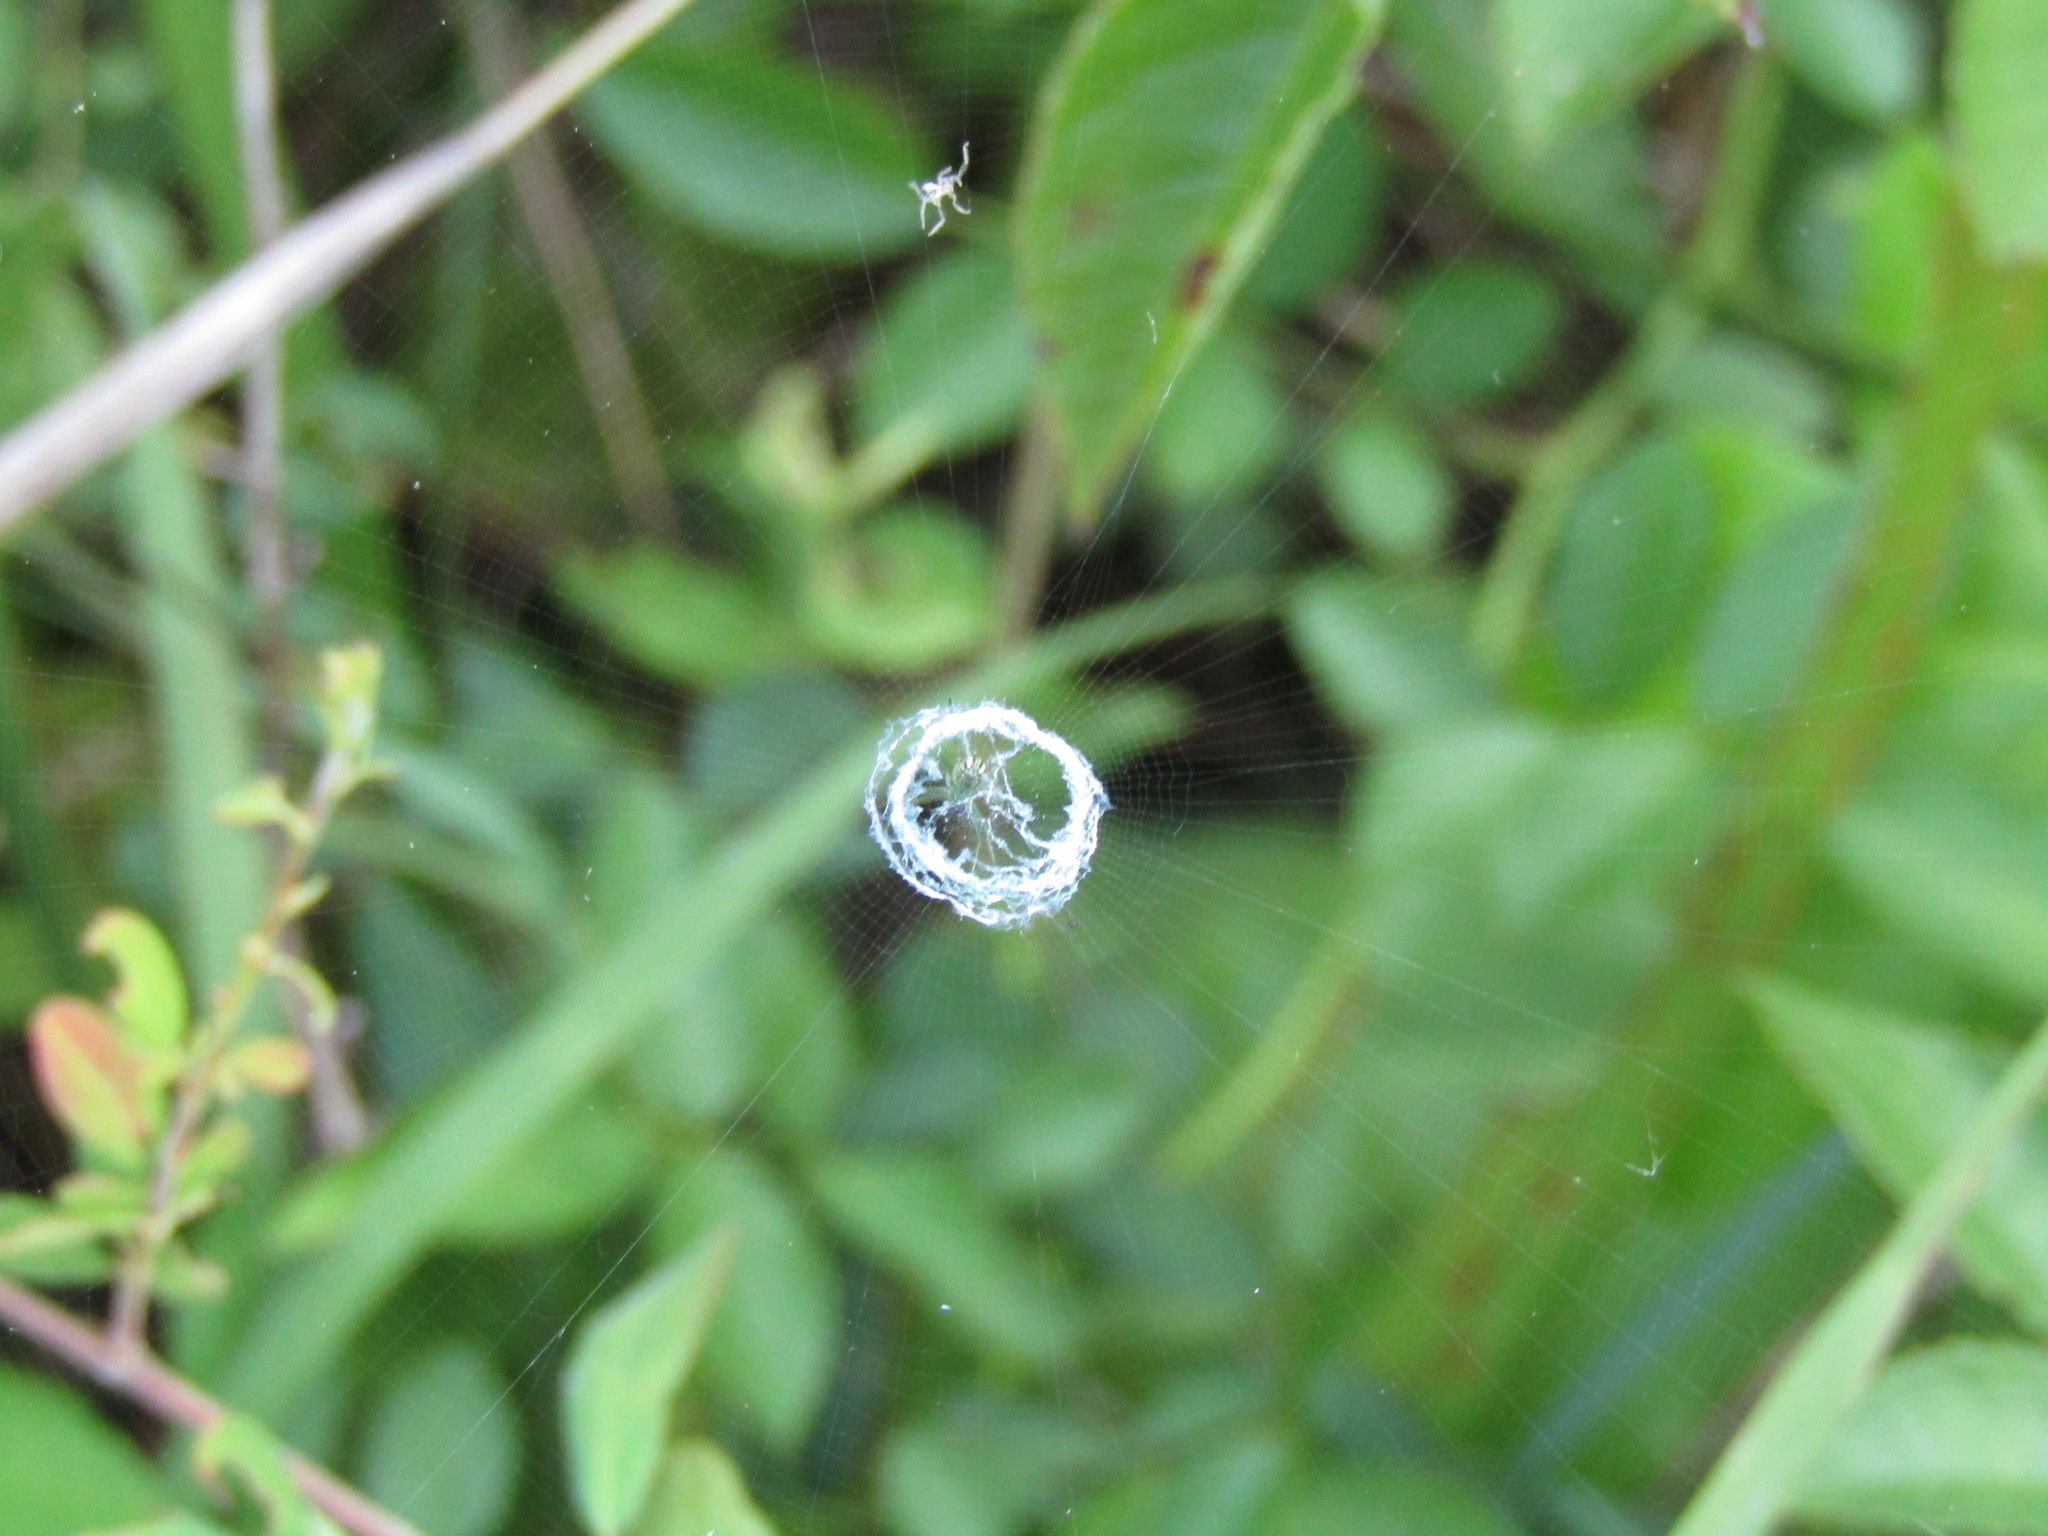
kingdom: Animalia
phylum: Arthropoda
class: Arachnida
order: Araneae
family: Araneidae
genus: Mangora
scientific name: Mangora gibberosa
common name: Lined orbweaver
